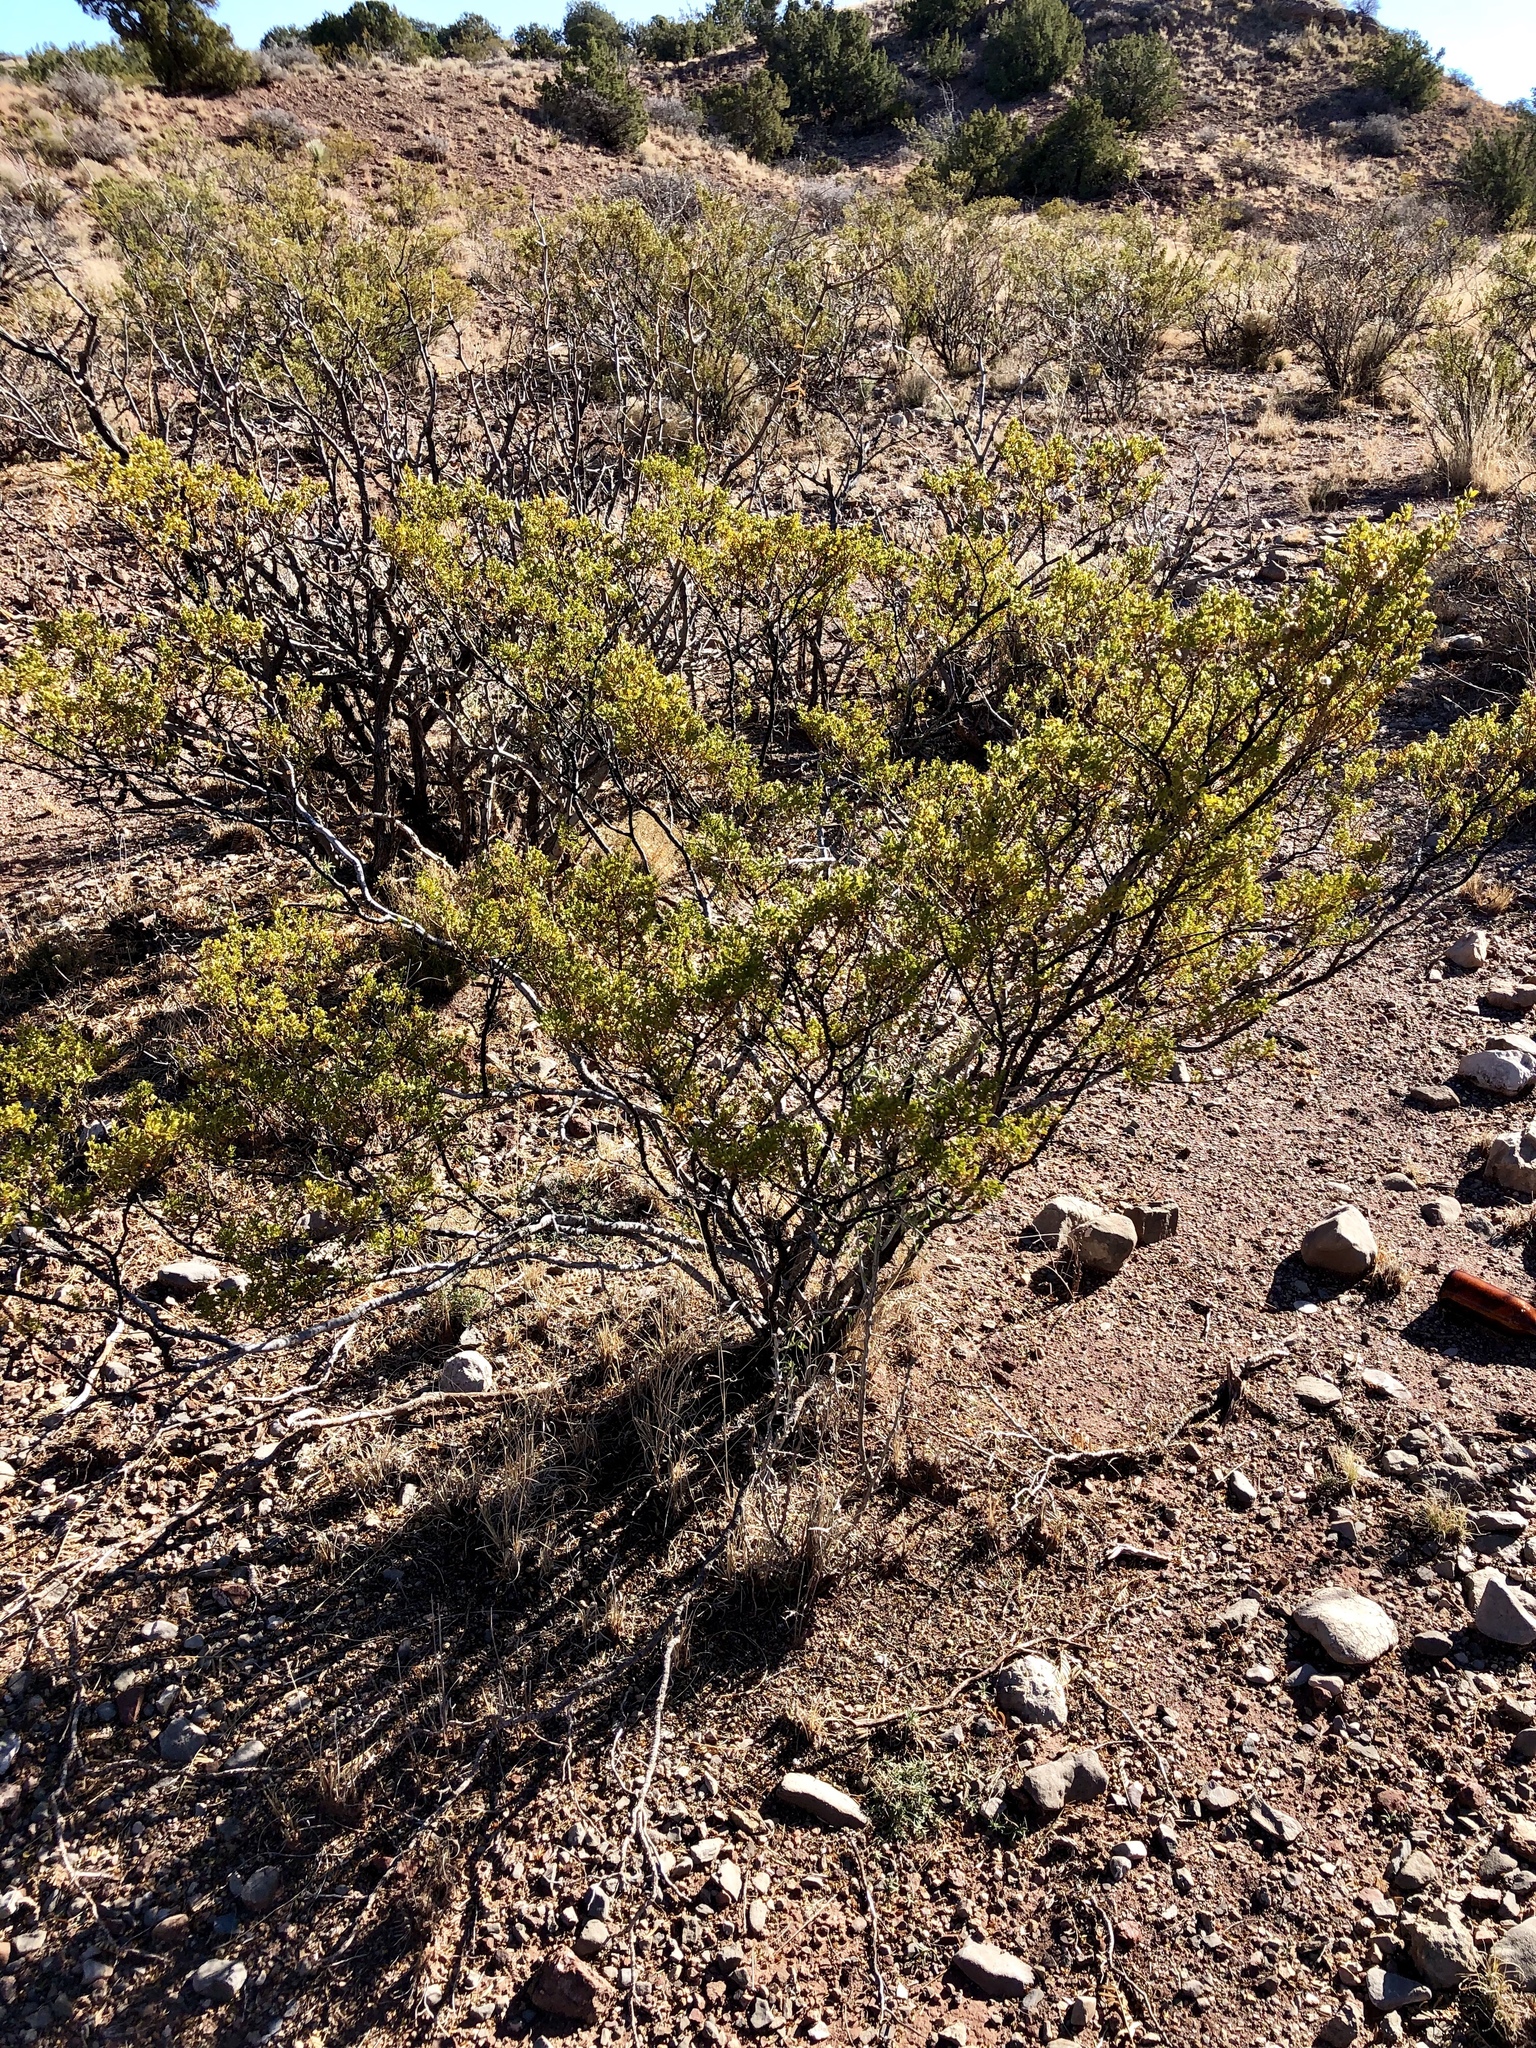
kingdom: Plantae
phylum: Tracheophyta
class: Magnoliopsida
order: Zygophyllales
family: Zygophyllaceae
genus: Larrea
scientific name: Larrea tridentata
